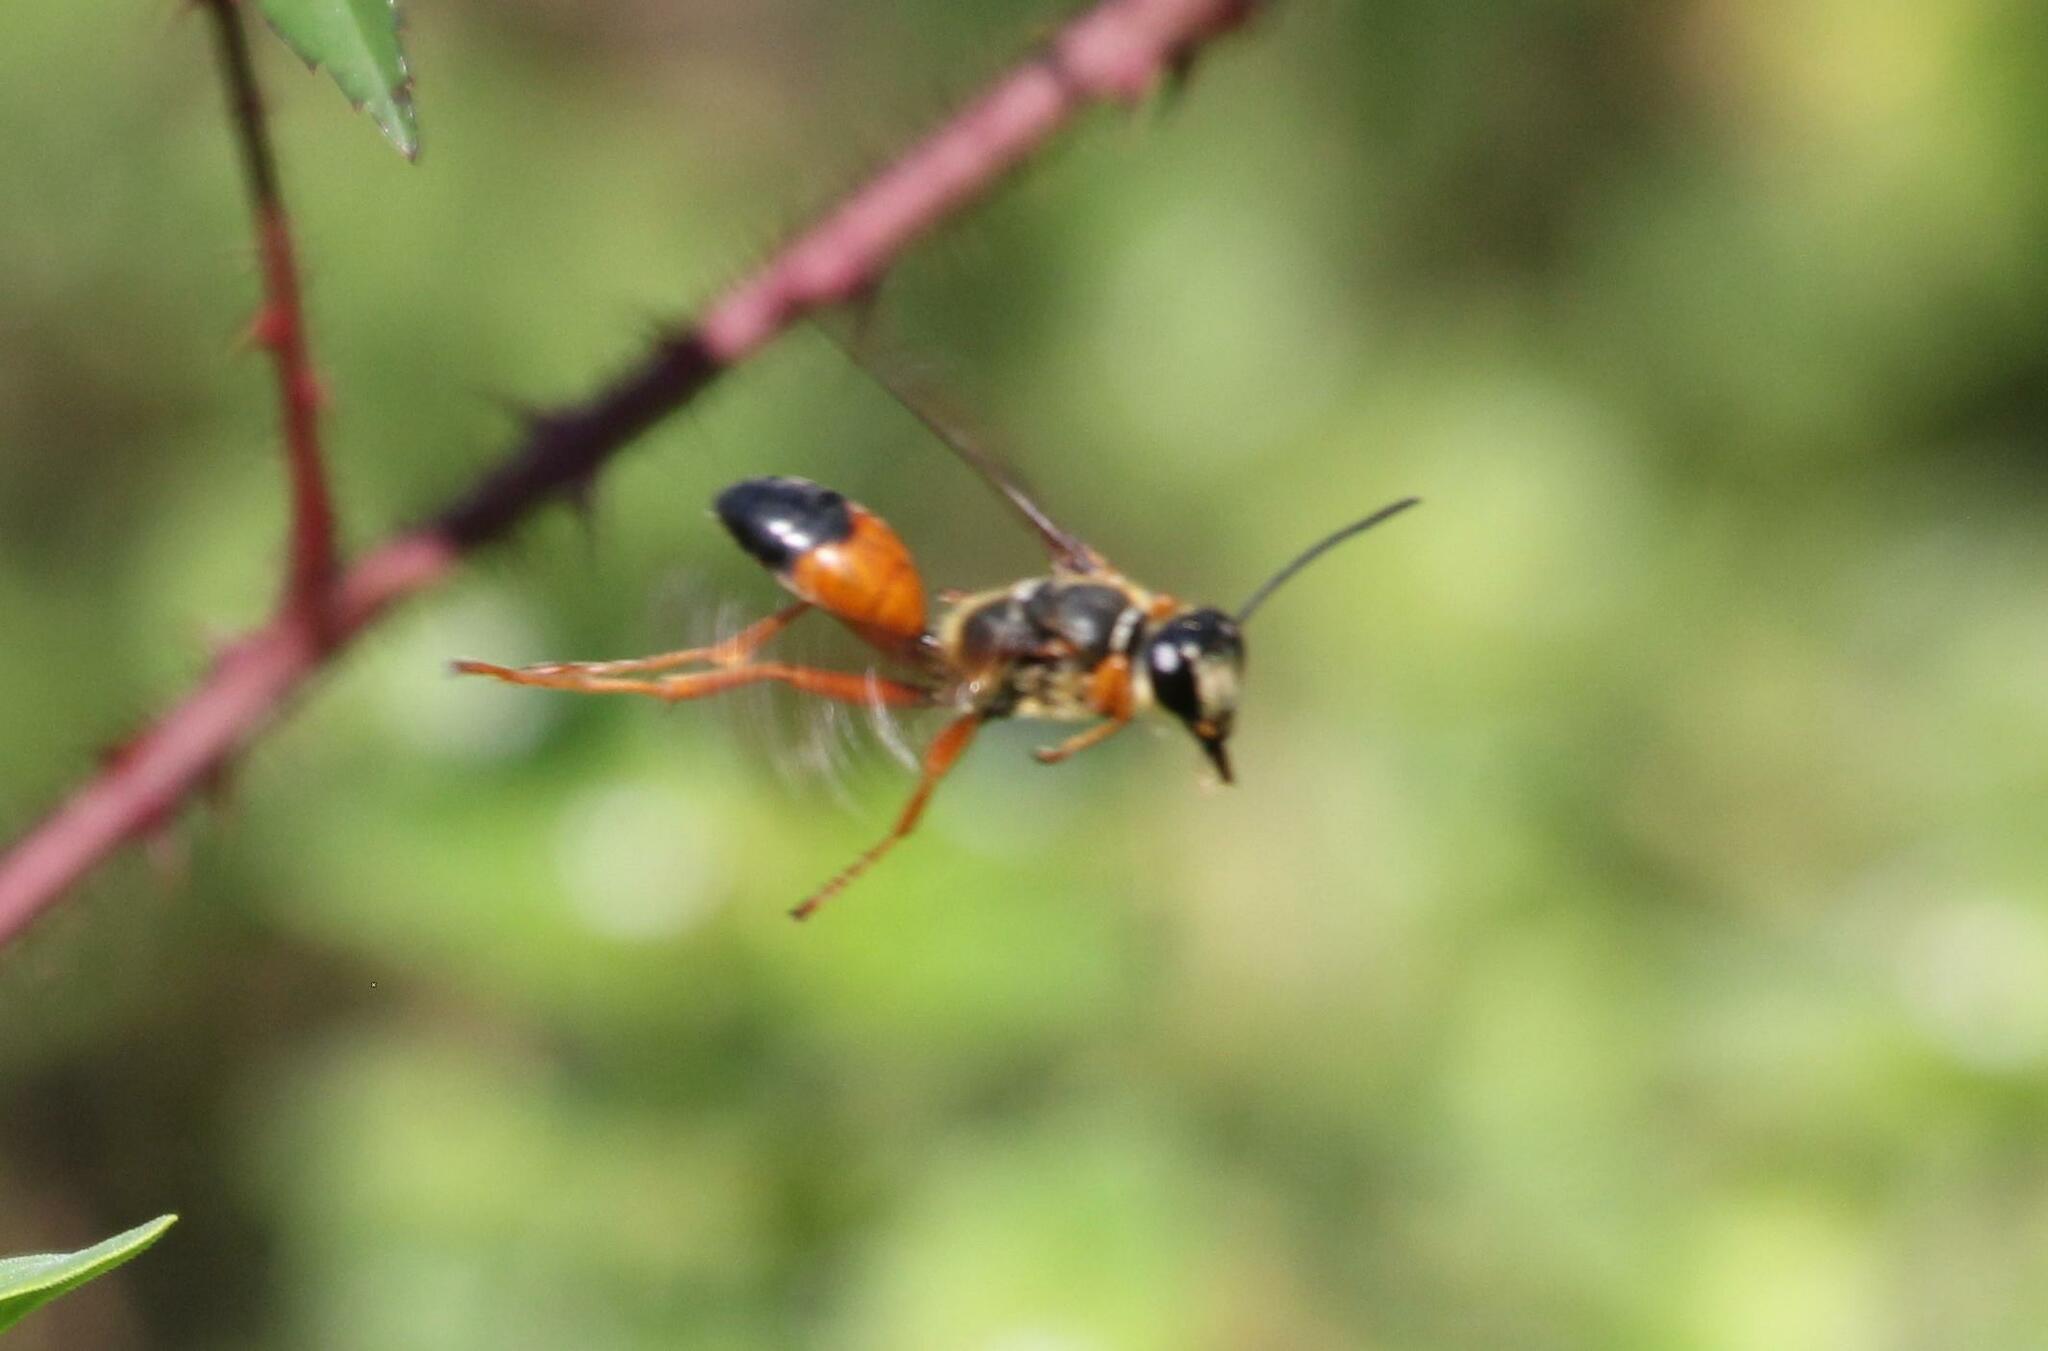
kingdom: Animalia
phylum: Arthropoda
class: Insecta
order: Hymenoptera
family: Sphecidae
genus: Sphex
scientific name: Sphex ichneumoneus
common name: Great golden digger wasp
